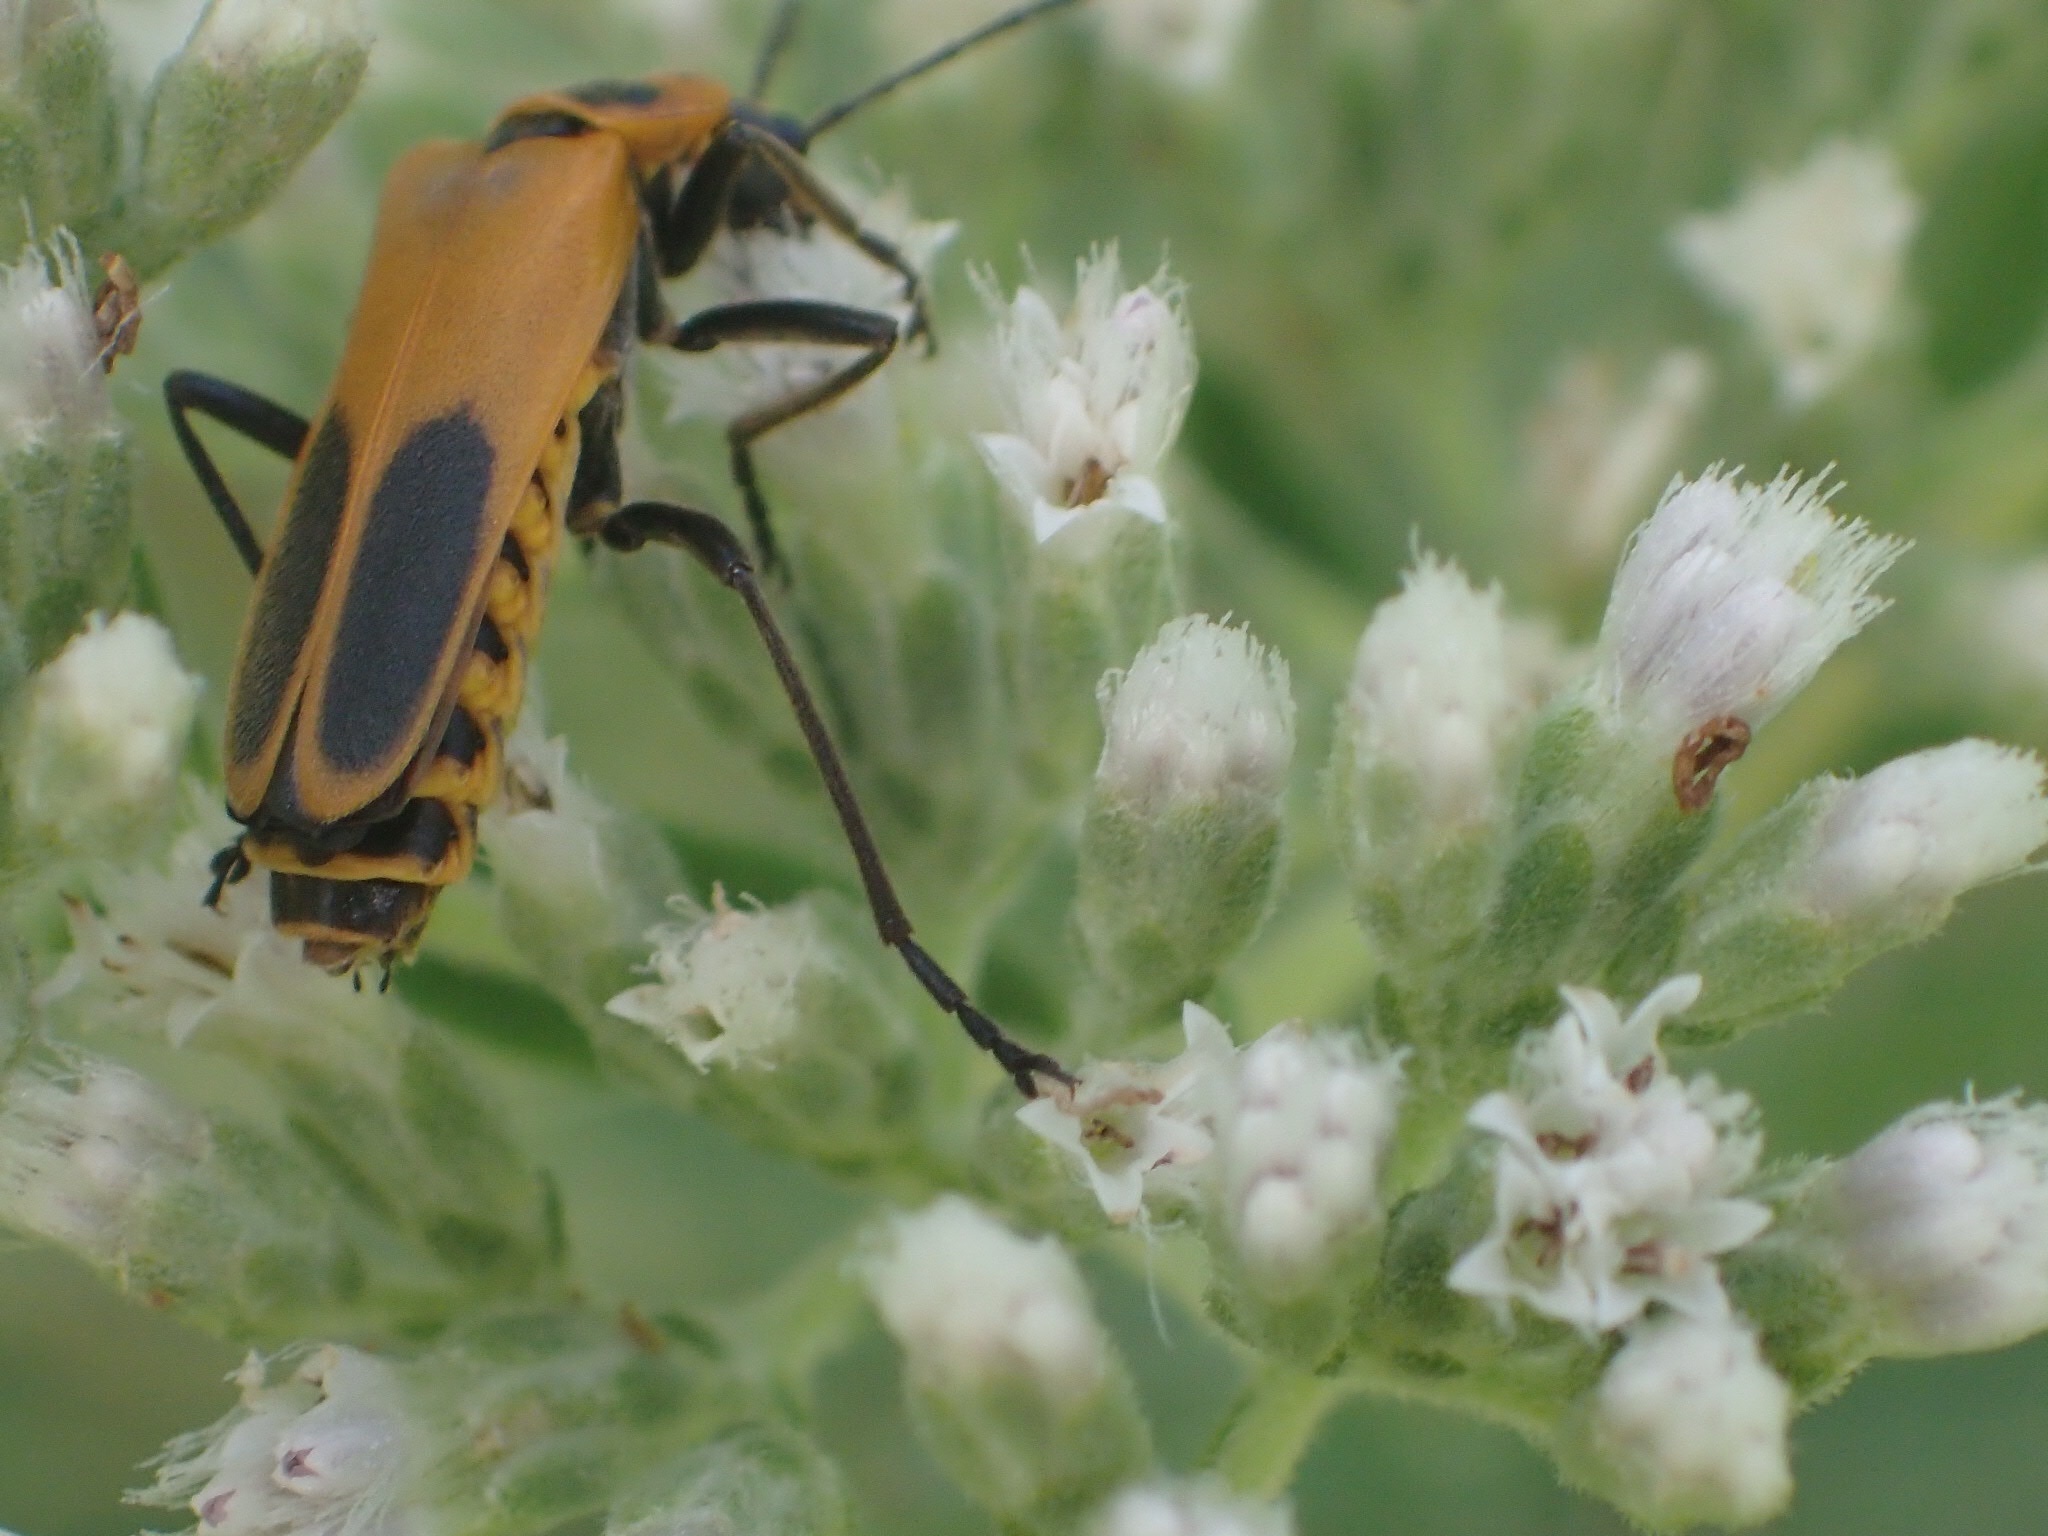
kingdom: Animalia
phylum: Arthropoda
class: Insecta
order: Coleoptera
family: Cantharidae
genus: Chauliognathus
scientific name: Chauliognathus pensylvanicus
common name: Goldenrod soldier beetle
